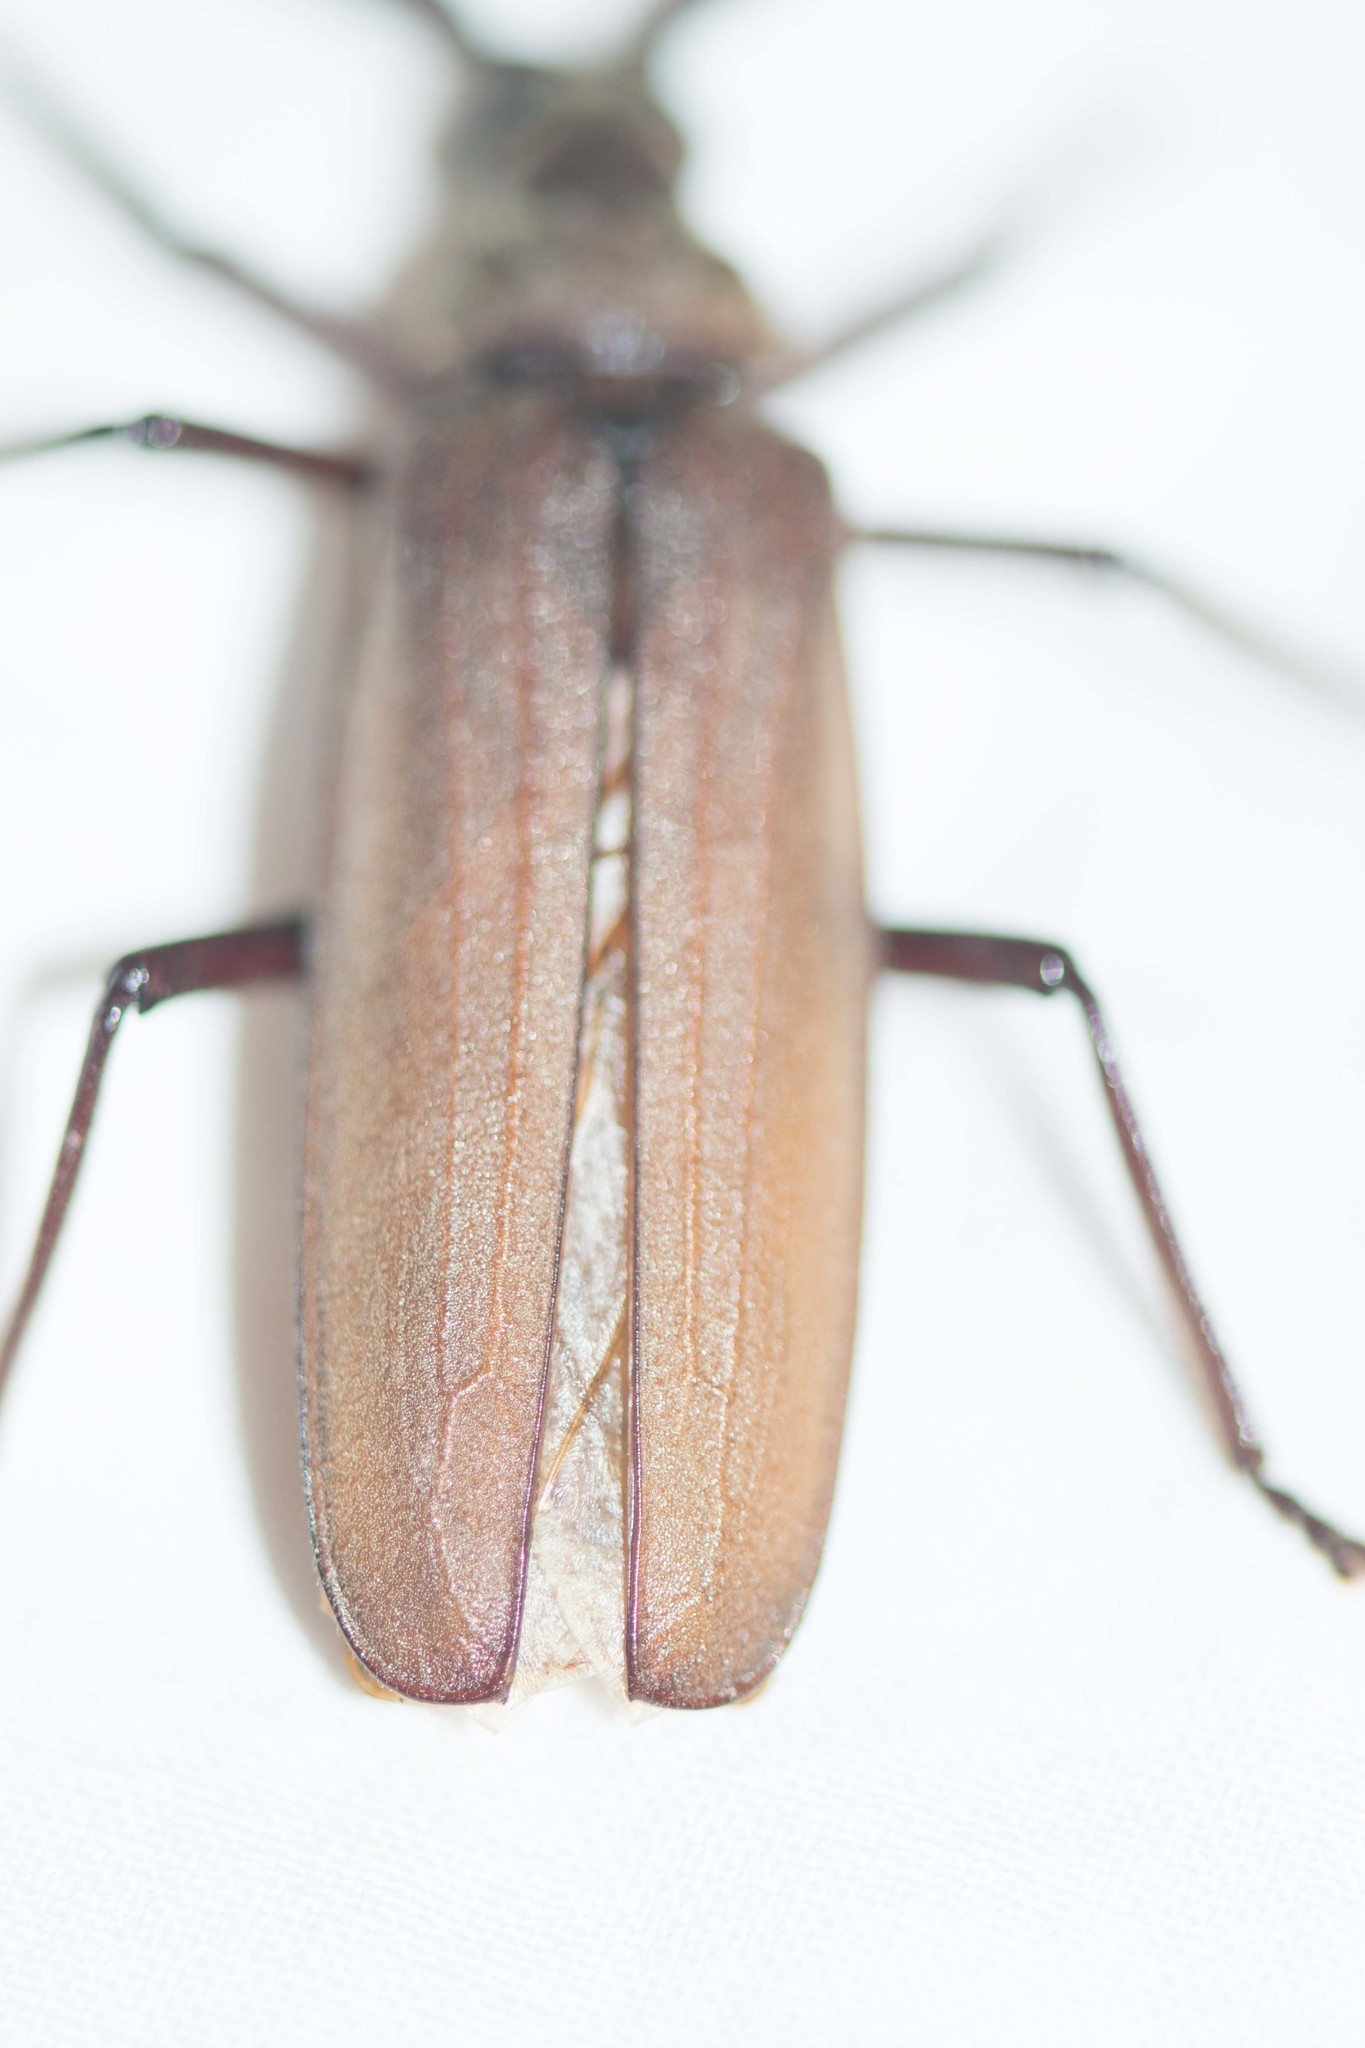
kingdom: Animalia
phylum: Arthropoda
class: Insecta
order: Coleoptera
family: Cerambycidae
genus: Aegosoma
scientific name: Aegosoma scabricorne
